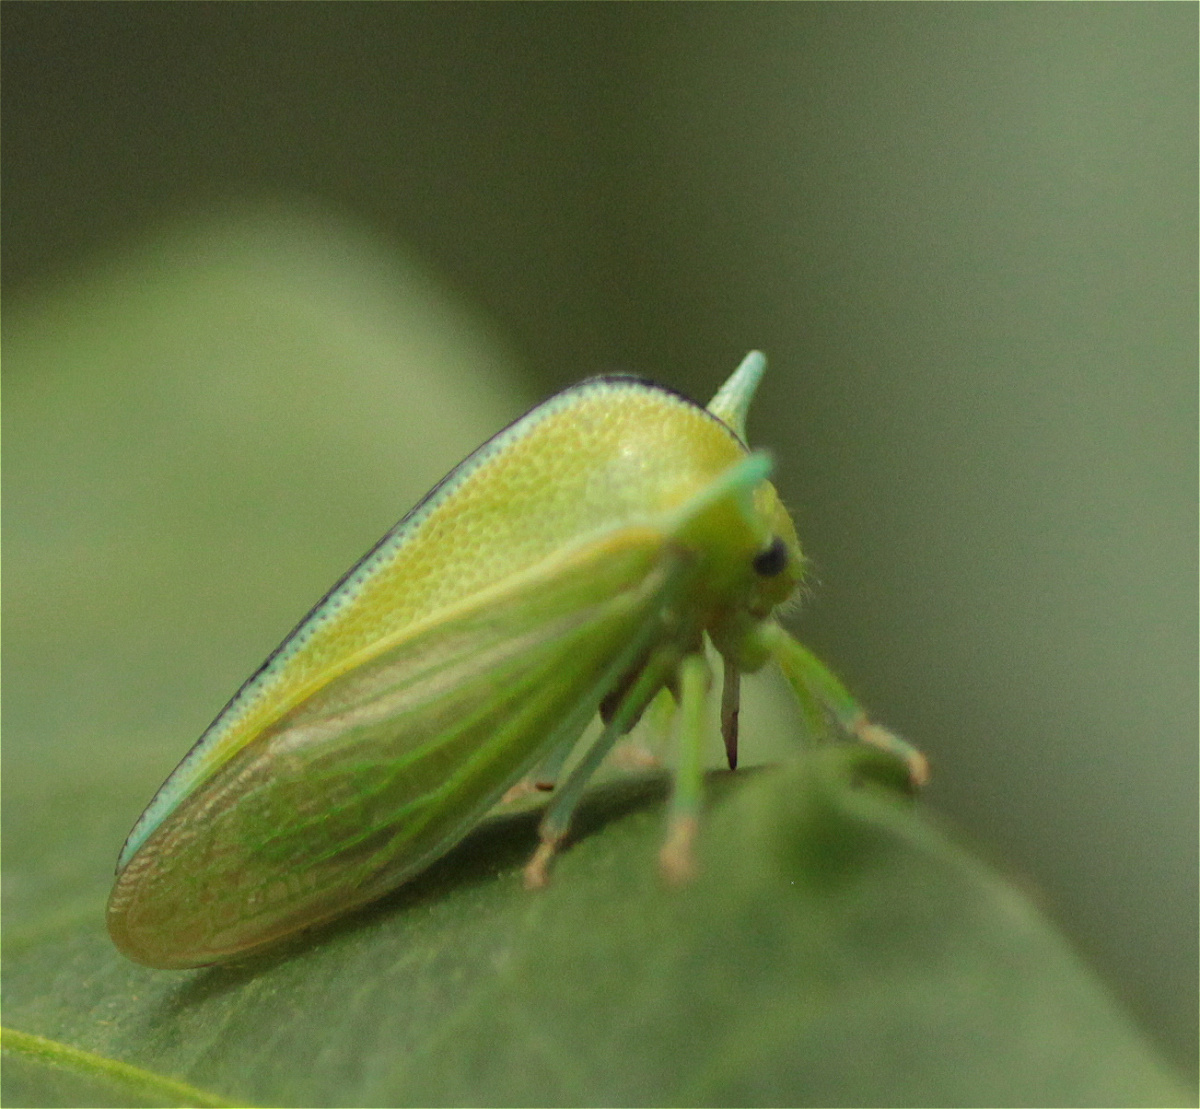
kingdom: Animalia
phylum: Arthropoda
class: Insecta
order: Hemiptera
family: Membracidae
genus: Alchisme
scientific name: Alchisme inermis
